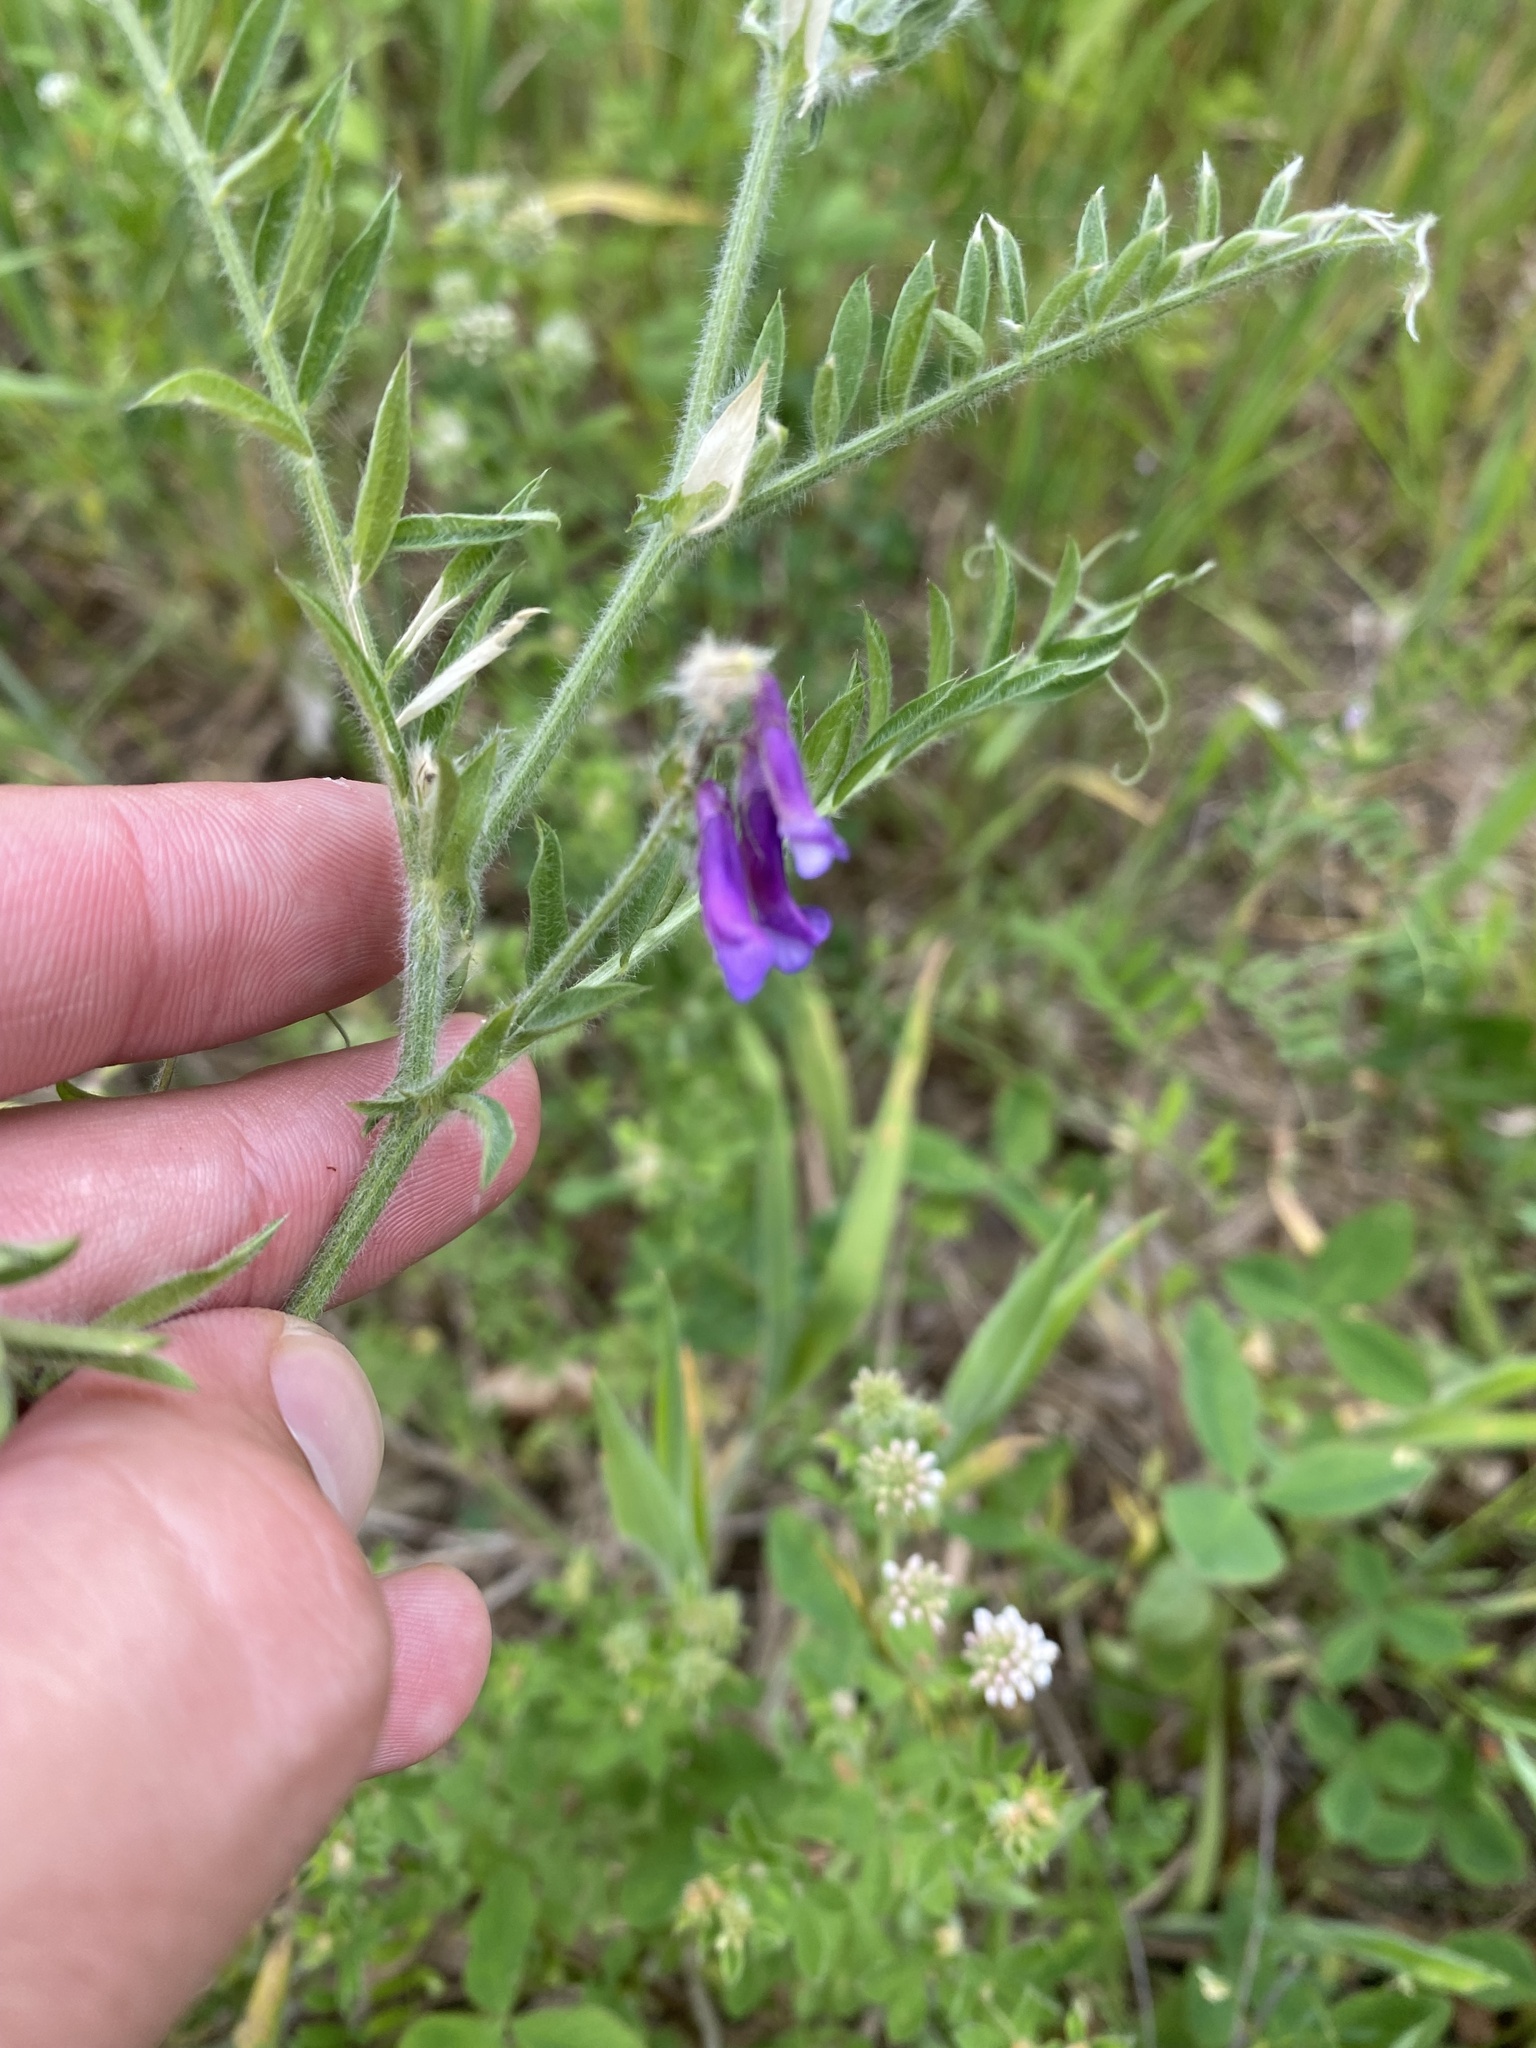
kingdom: Plantae
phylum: Tracheophyta
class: Magnoliopsida
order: Fabales
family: Fabaceae
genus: Vicia
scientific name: Vicia villosa
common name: Fodder vetch
